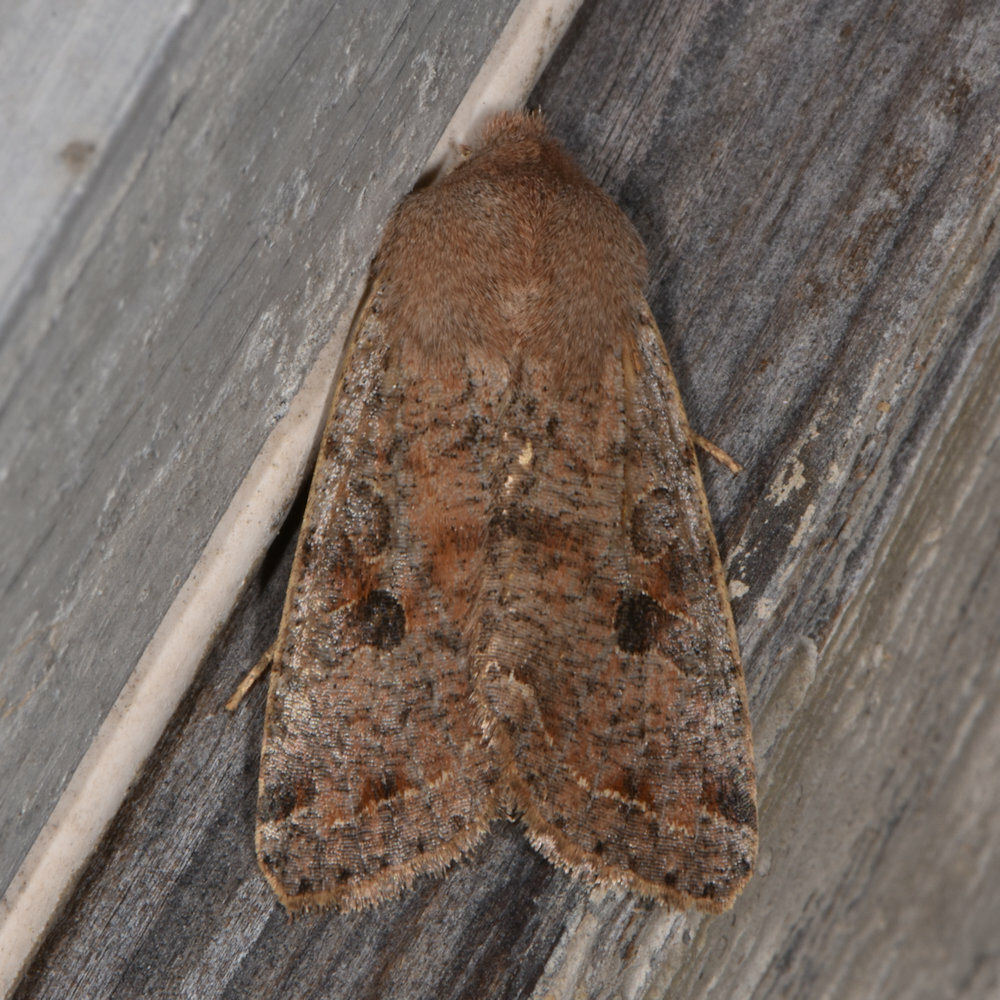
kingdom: Animalia
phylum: Arthropoda
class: Insecta
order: Lepidoptera
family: Noctuidae
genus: Orthosia
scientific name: Orthosia hibisci
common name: Green fruitworm
